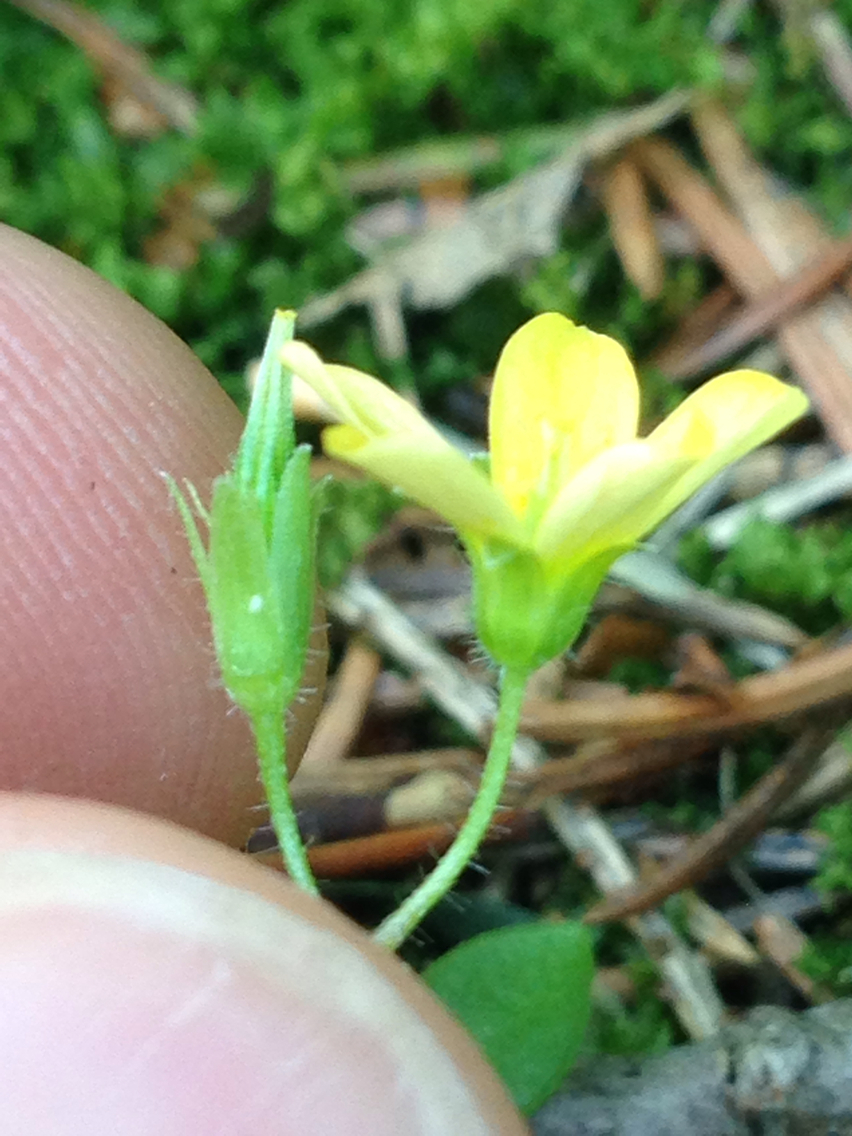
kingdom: Plantae
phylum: Tracheophyta
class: Magnoliopsida
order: Oxalidales
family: Oxalidaceae
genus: Oxalis
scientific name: Oxalis stricta
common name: Upright yellow-sorrel
